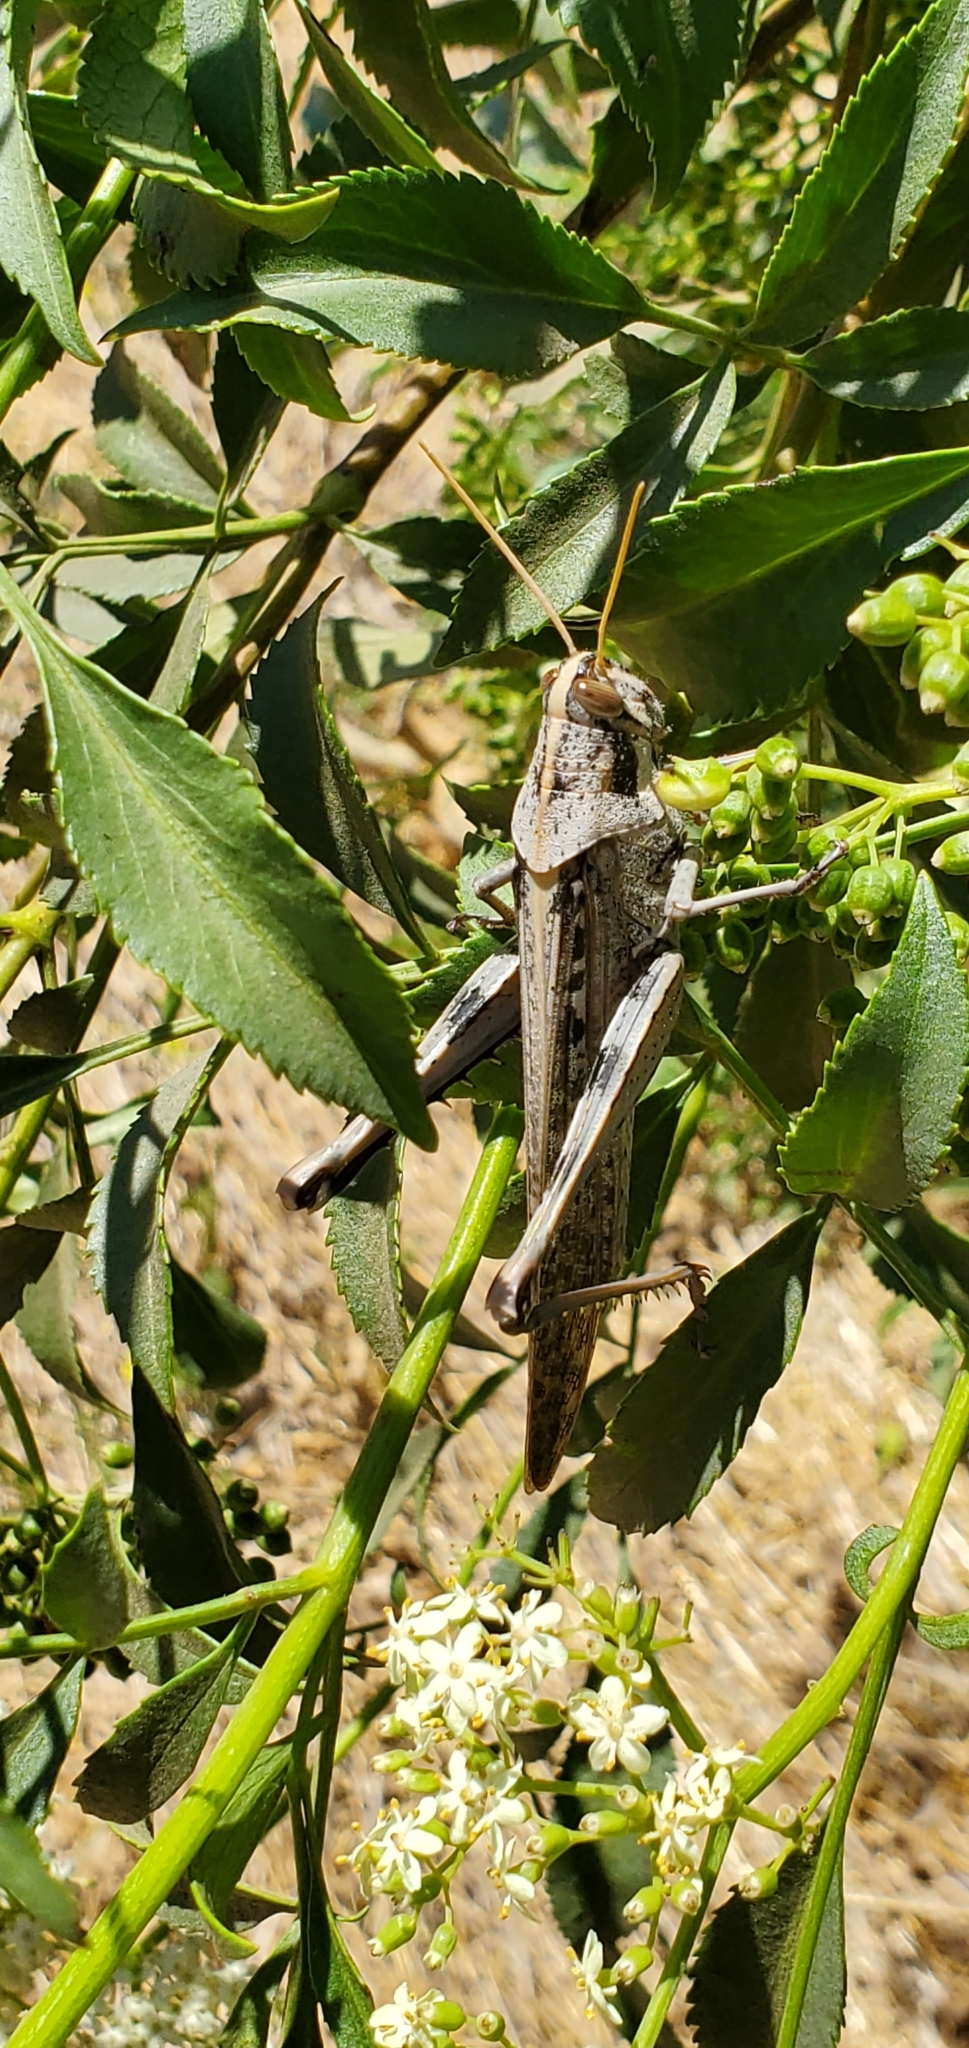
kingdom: Animalia
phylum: Arthropoda
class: Insecta
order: Orthoptera
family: Acrididae
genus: Schistocerca
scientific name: Schistocerca nitens
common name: Vagrant grasshopper
